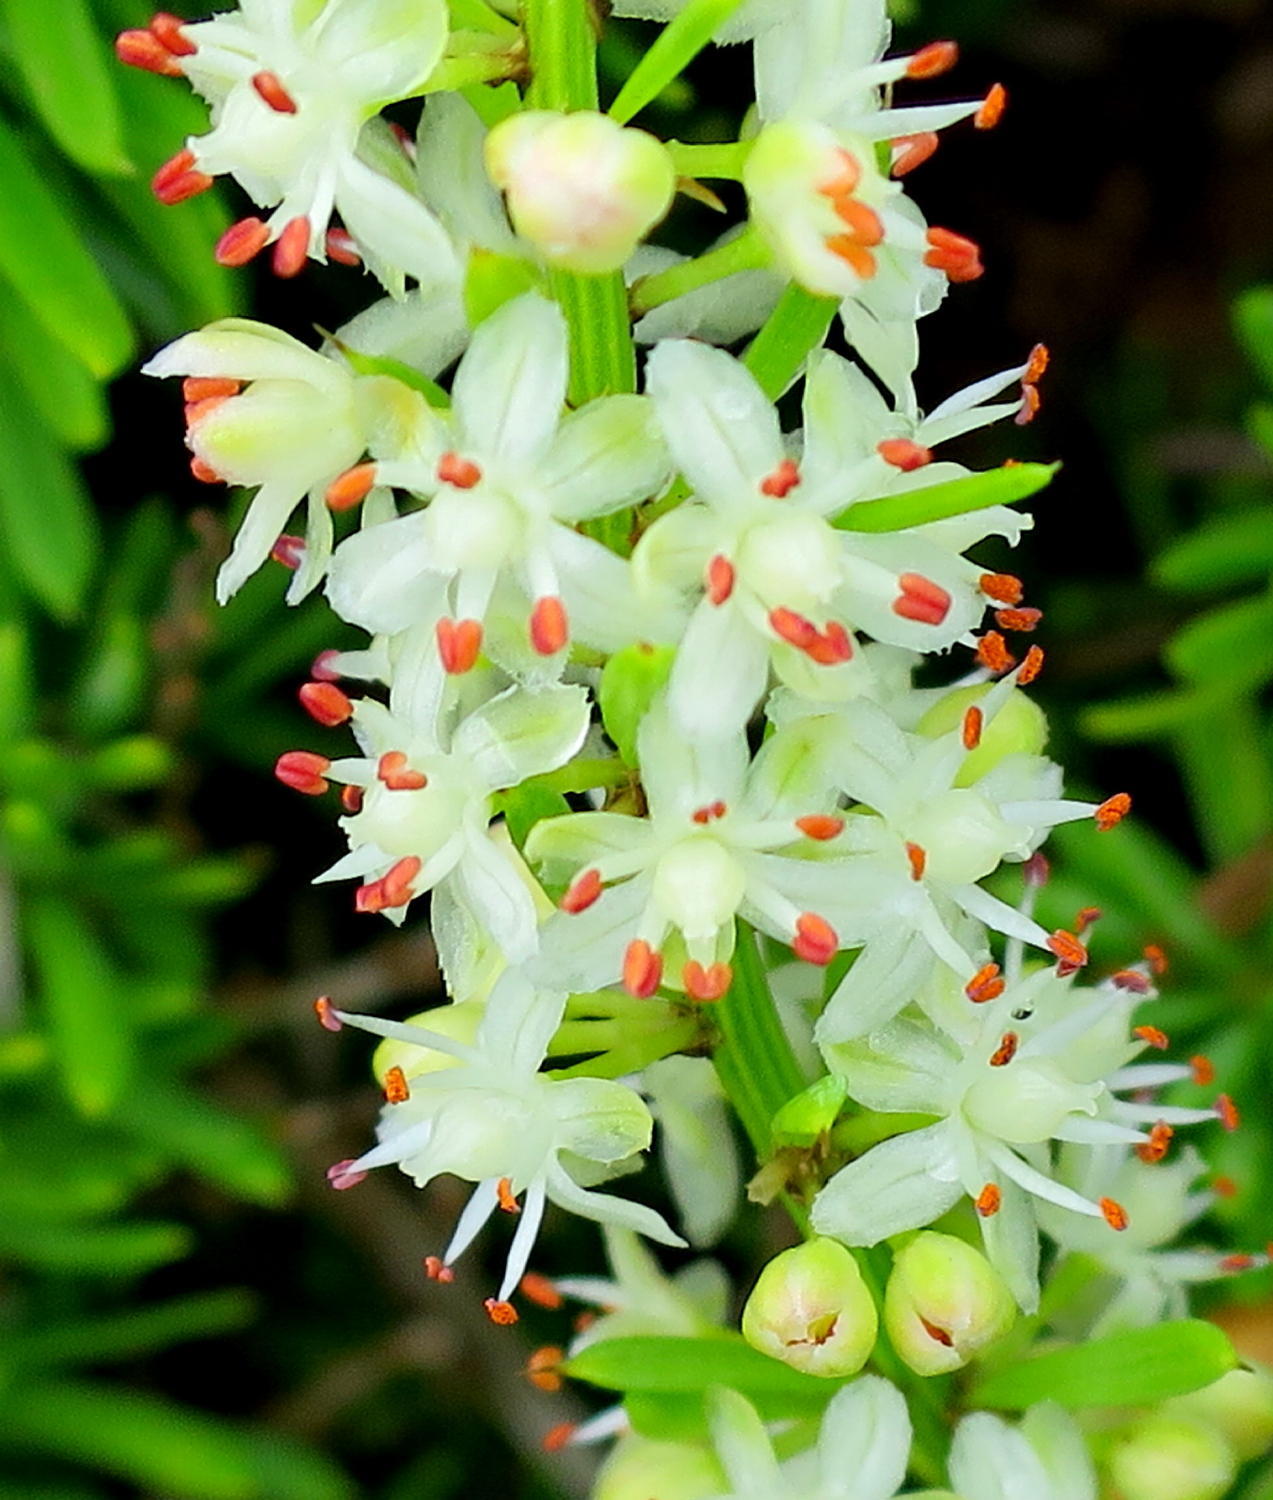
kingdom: Plantae
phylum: Tracheophyta
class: Liliopsida
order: Asparagales
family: Asparagaceae
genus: Asparagus
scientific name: Asparagus densiflorus
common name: Asparagus fern
